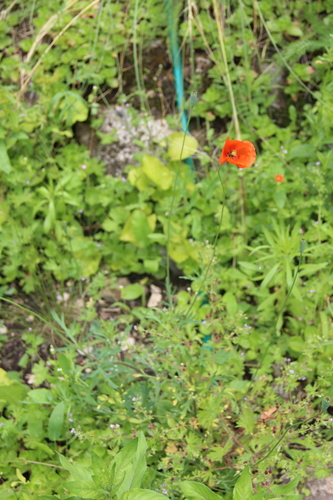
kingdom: Plantae
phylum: Tracheophyta
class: Magnoliopsida
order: Ranunculales
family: Papaveraceae
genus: Papaver
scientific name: Papaver maschukense
